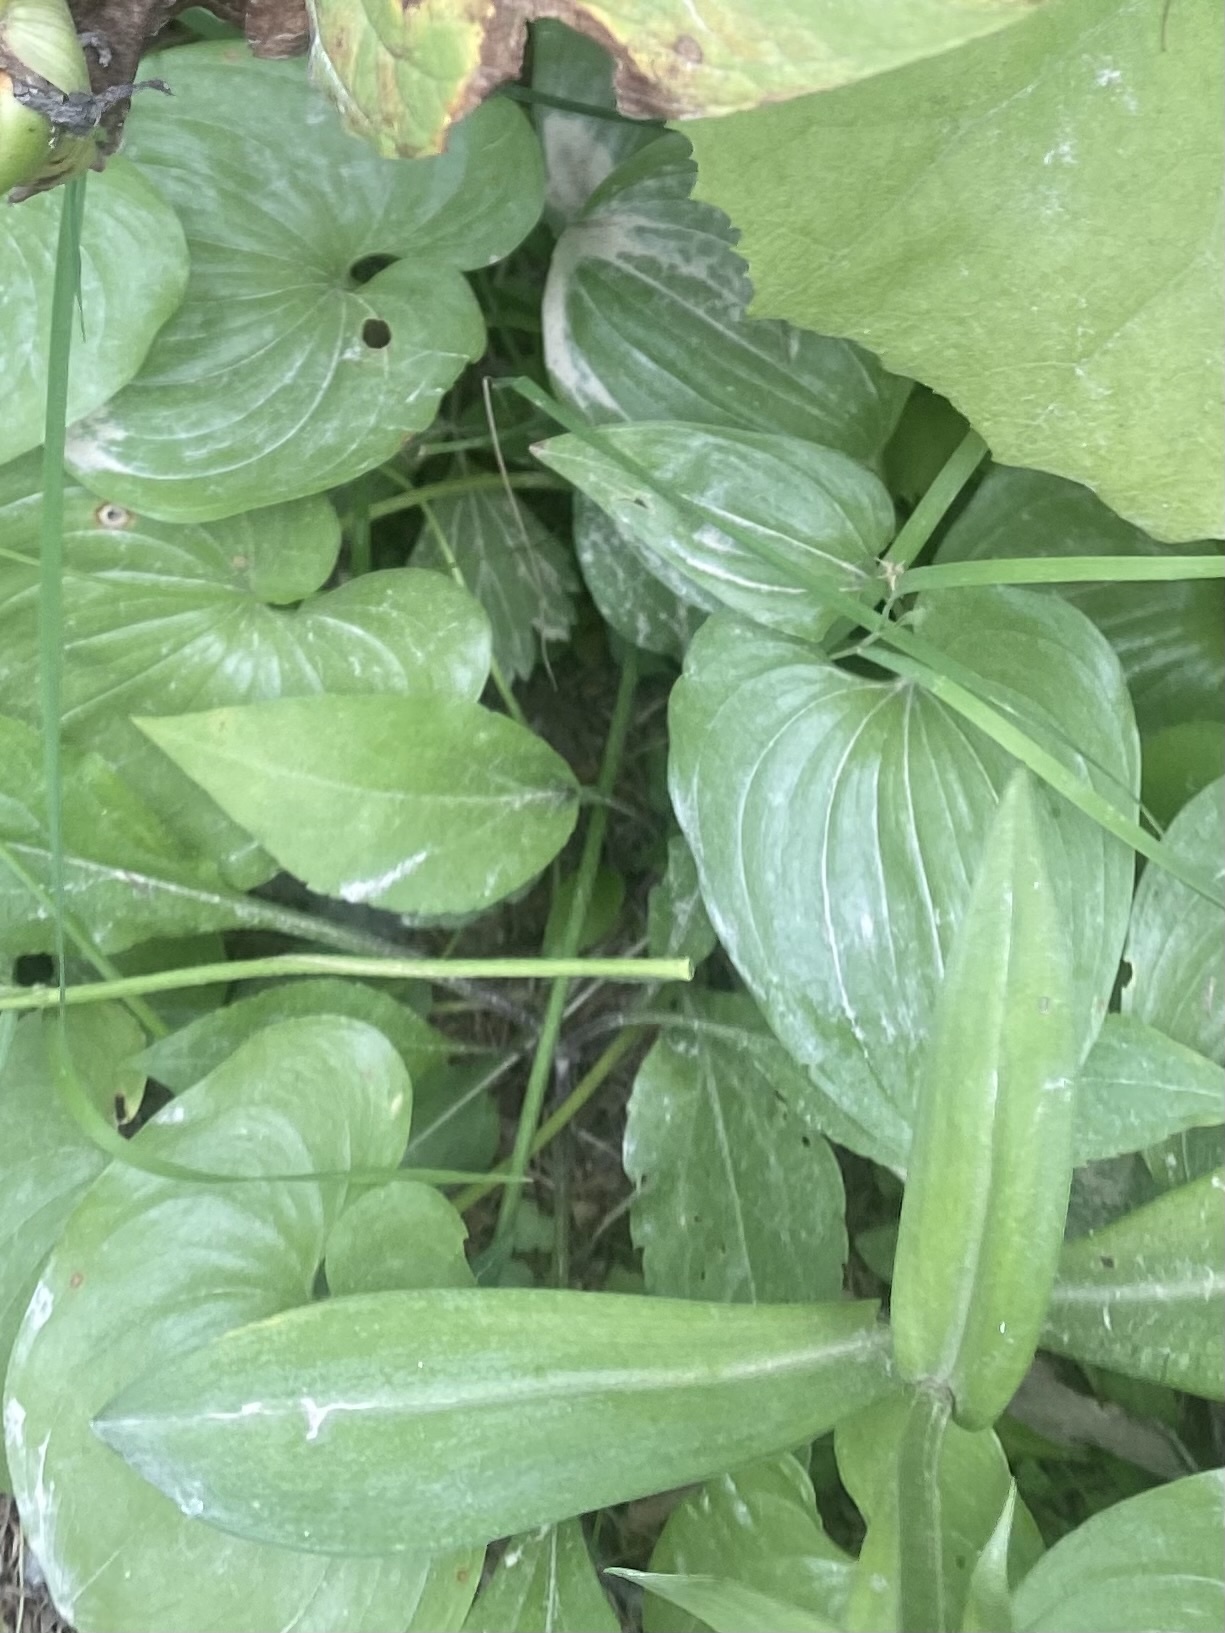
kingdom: Plantae
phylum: Tracheophyta
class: Liliopsida
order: Asparagales
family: Asparagaceae
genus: Maianthemum
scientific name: Maianthemum dilatatum
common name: False lily-of-the-valley
